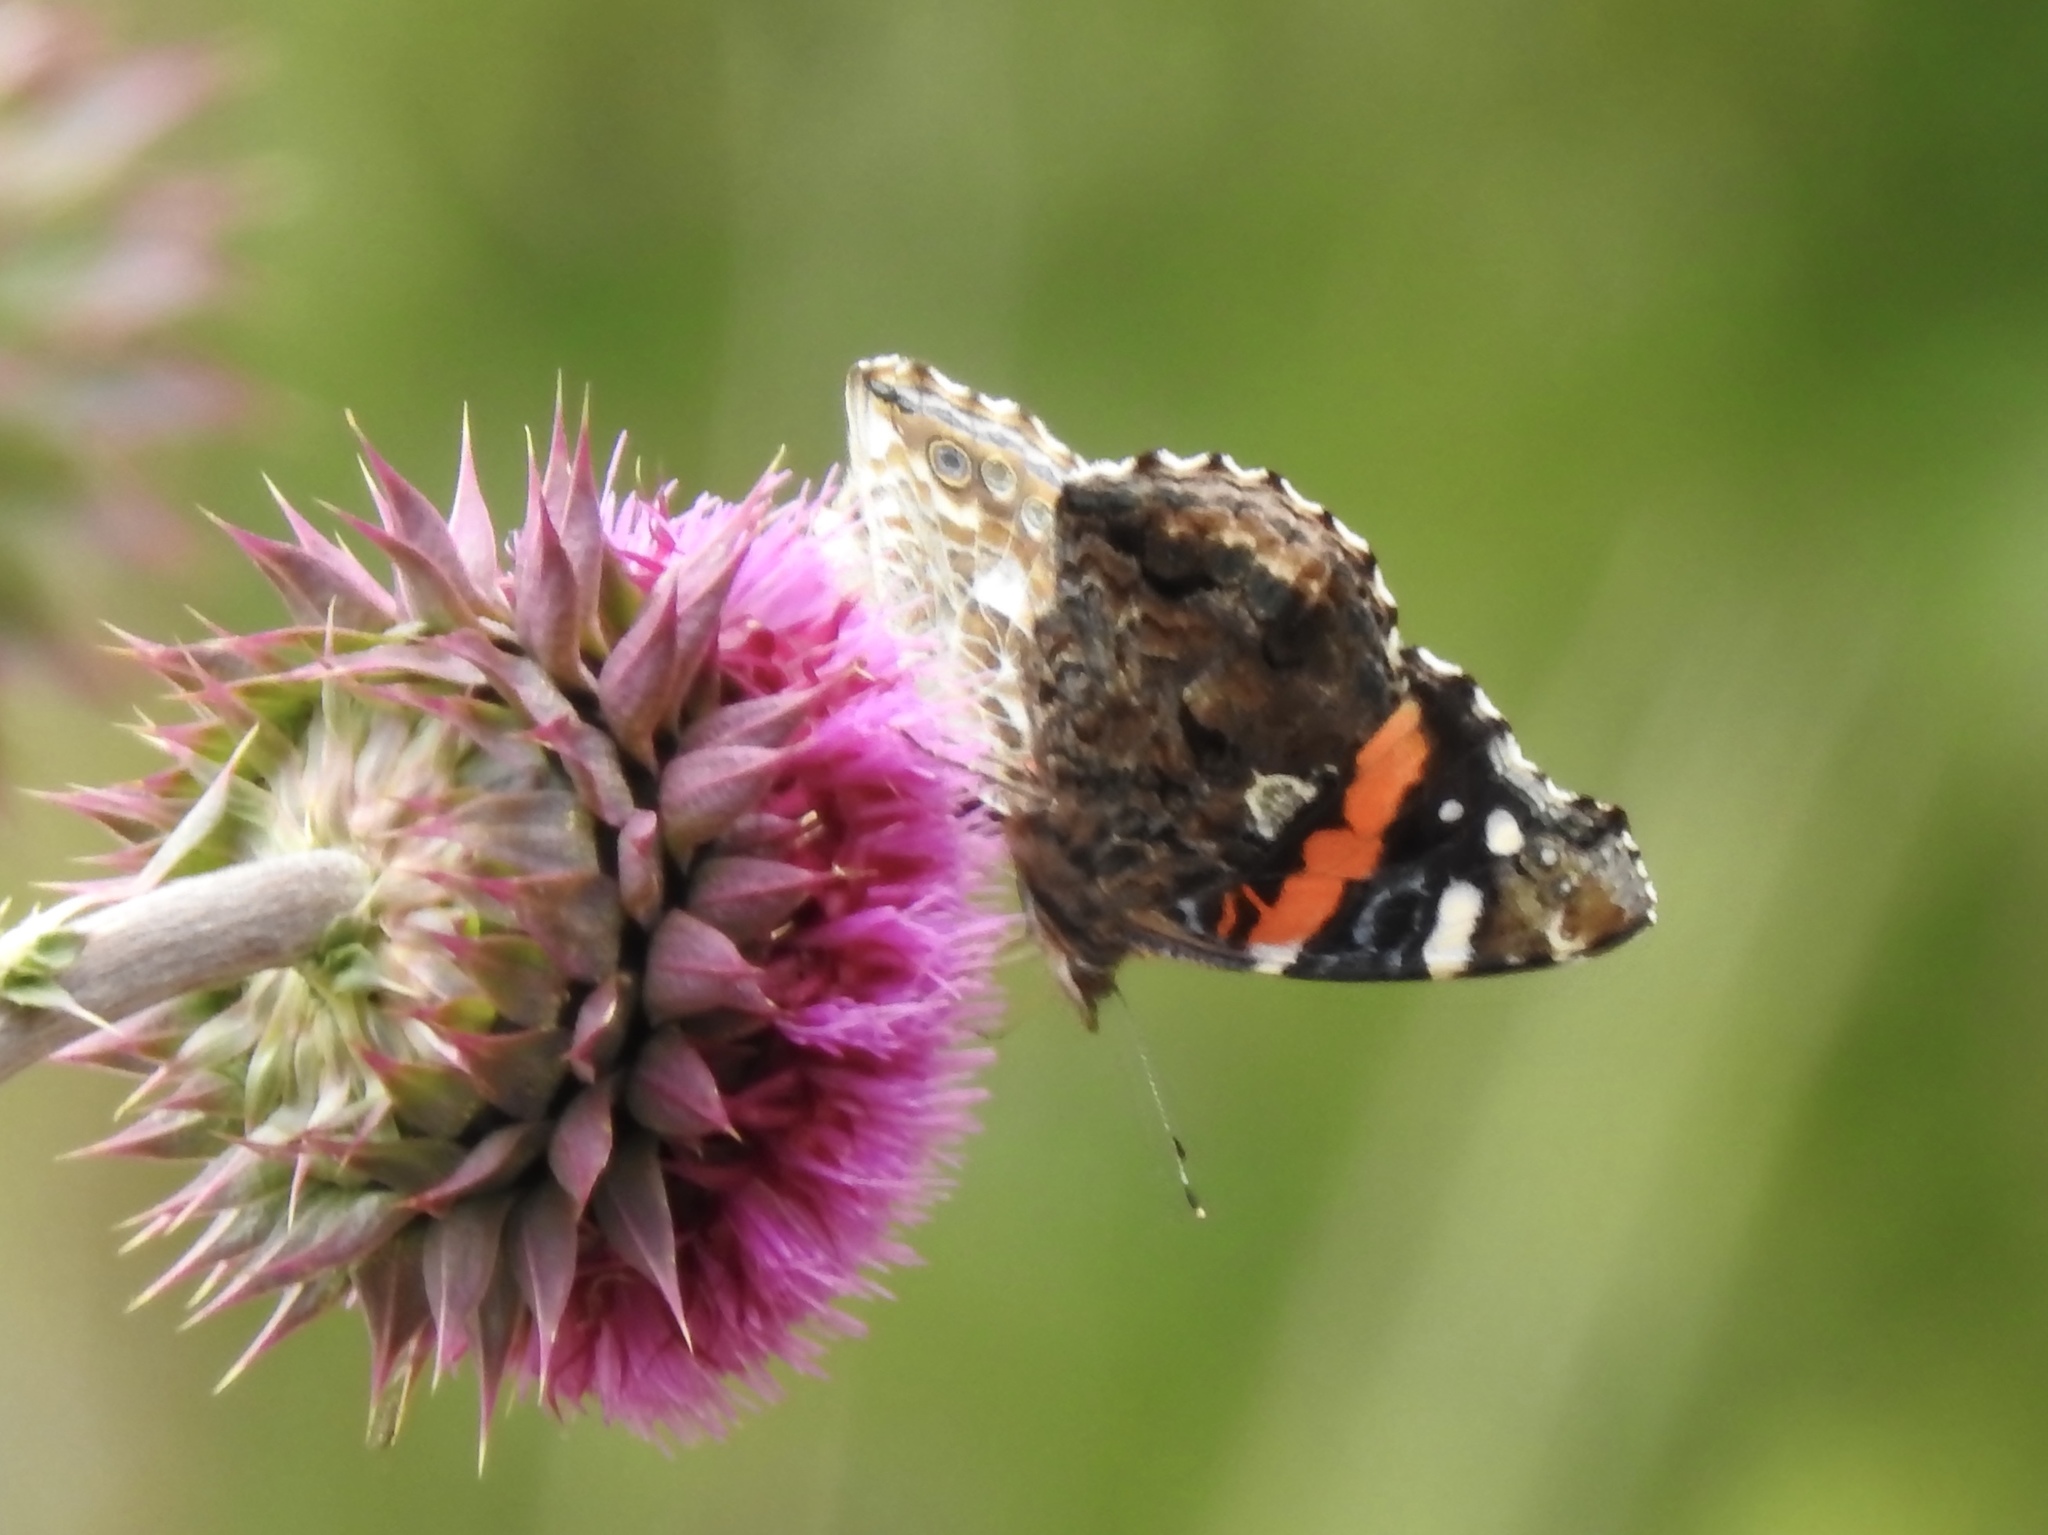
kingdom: Animalia
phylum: Arthropoda
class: Insecta
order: Lepidoptera
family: Nymphalidae
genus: Vanessa
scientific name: Vanessa atalanta
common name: Red admiral
